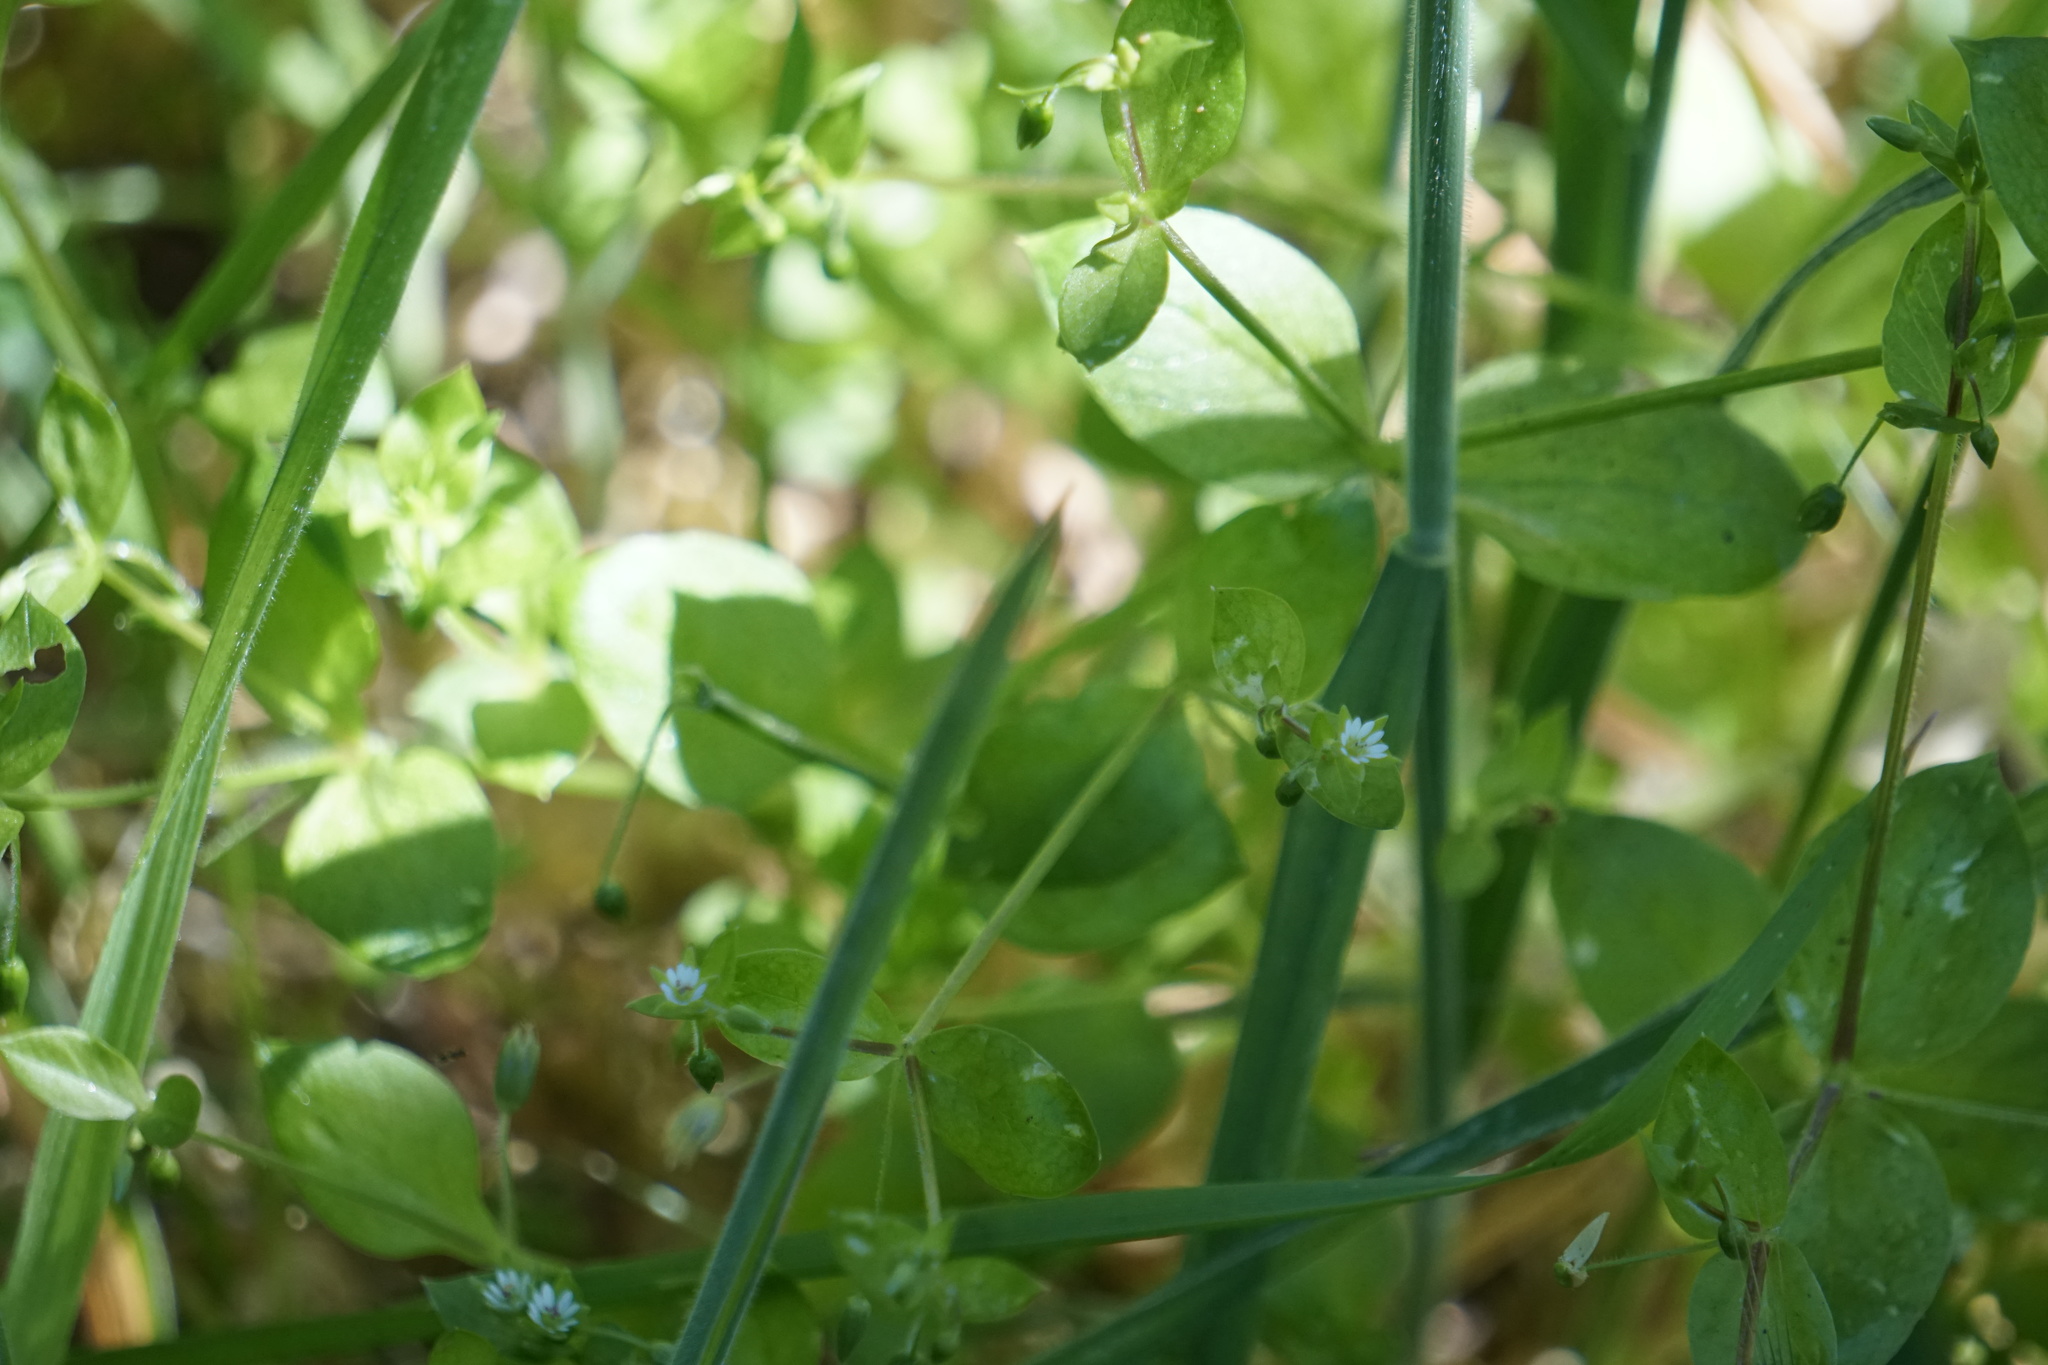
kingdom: Plantae
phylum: Tracheophyta
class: Magnoliopsida
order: Caryophyllales
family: Caryophyllaceae
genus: Stellaria
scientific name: Stellaria media
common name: Common chickweed
